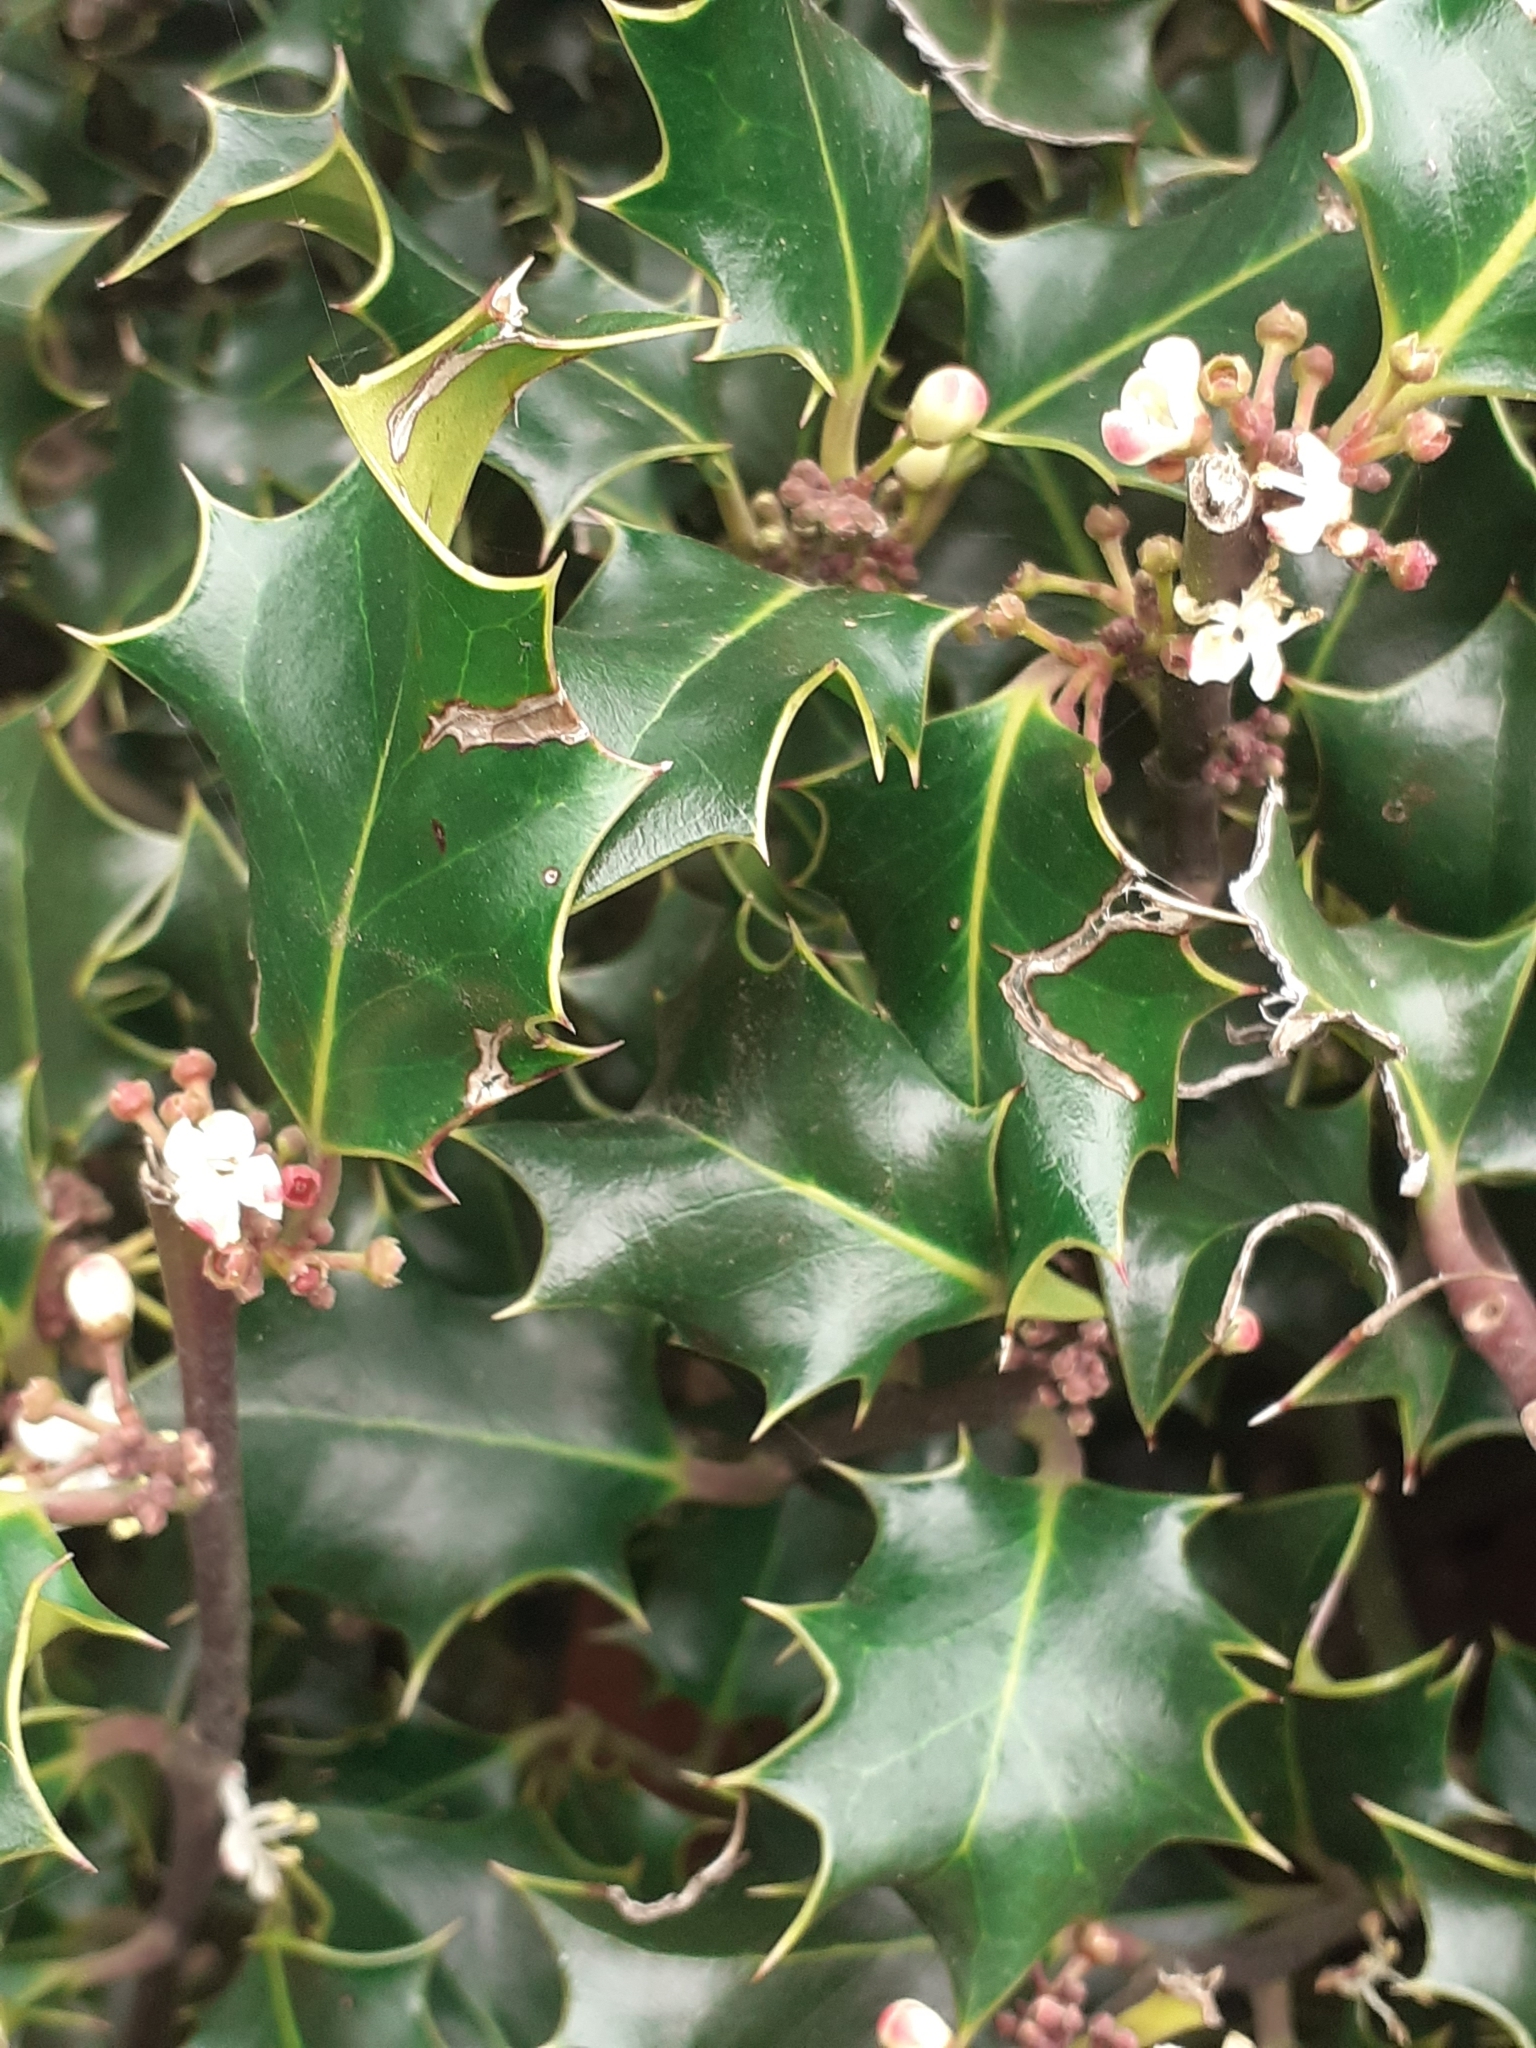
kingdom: Plantae
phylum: Tracheophyta
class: Magnoliopsida
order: Aquifoliales
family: Aquifoliaceae
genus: Ilex
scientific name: Ilex aquifolium
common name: English holly
